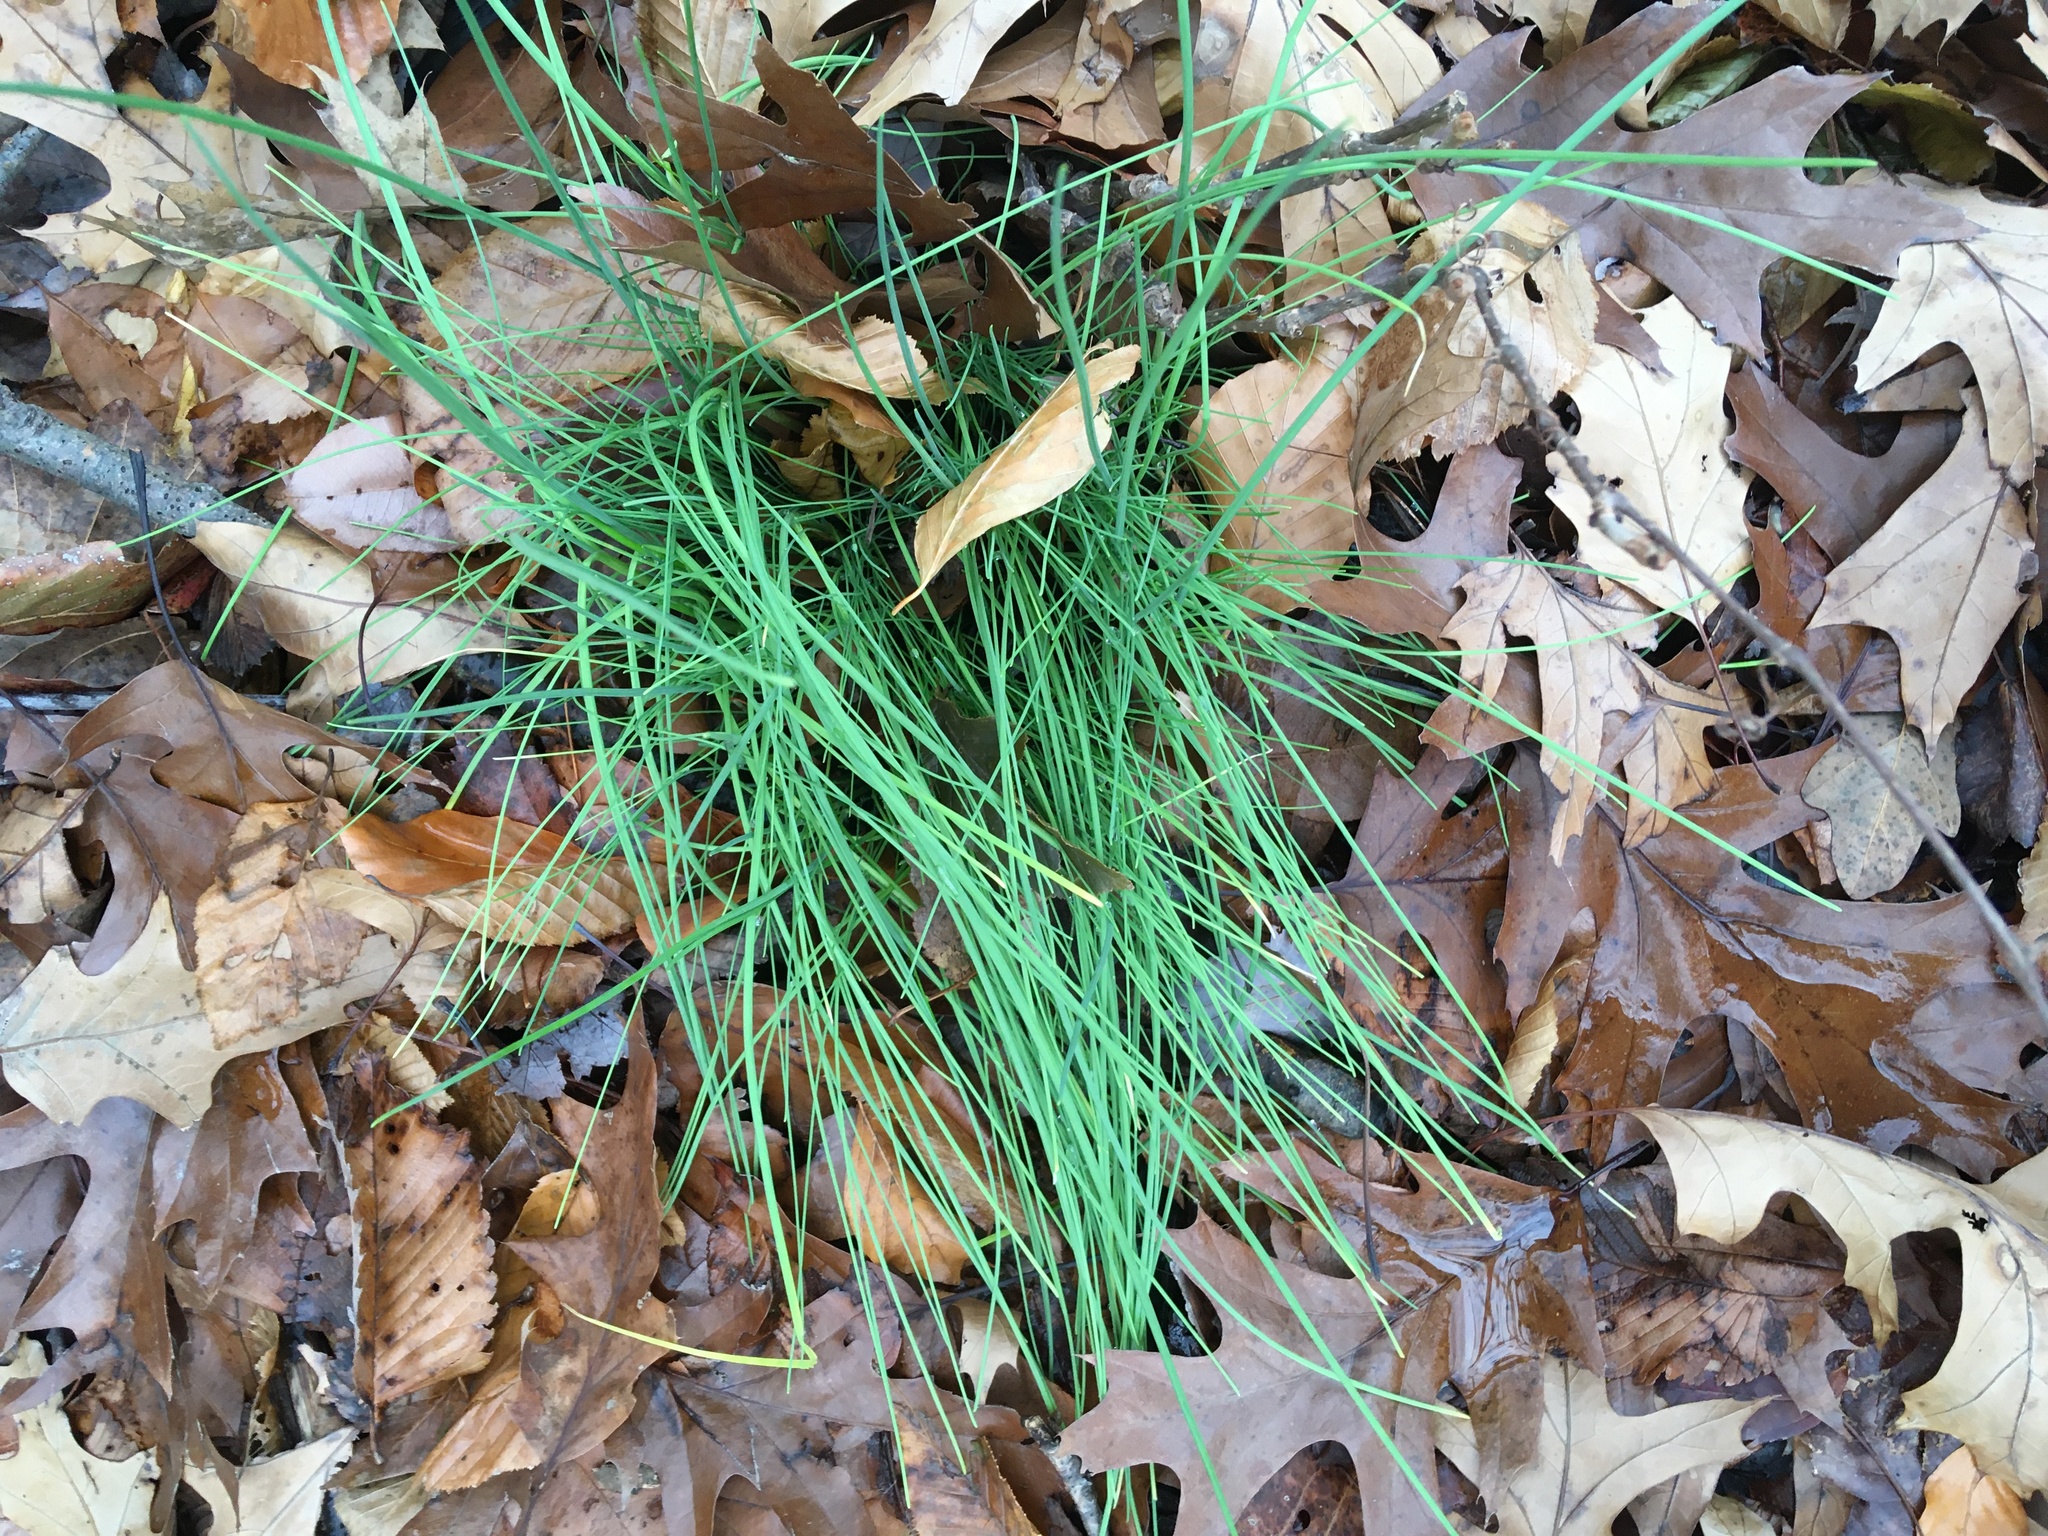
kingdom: Plantae
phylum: Tracheophyta
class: Liliopsida
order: Asparagales
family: Amaryllidaceae
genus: Allium
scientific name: Allium vineale
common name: Crow garlic
